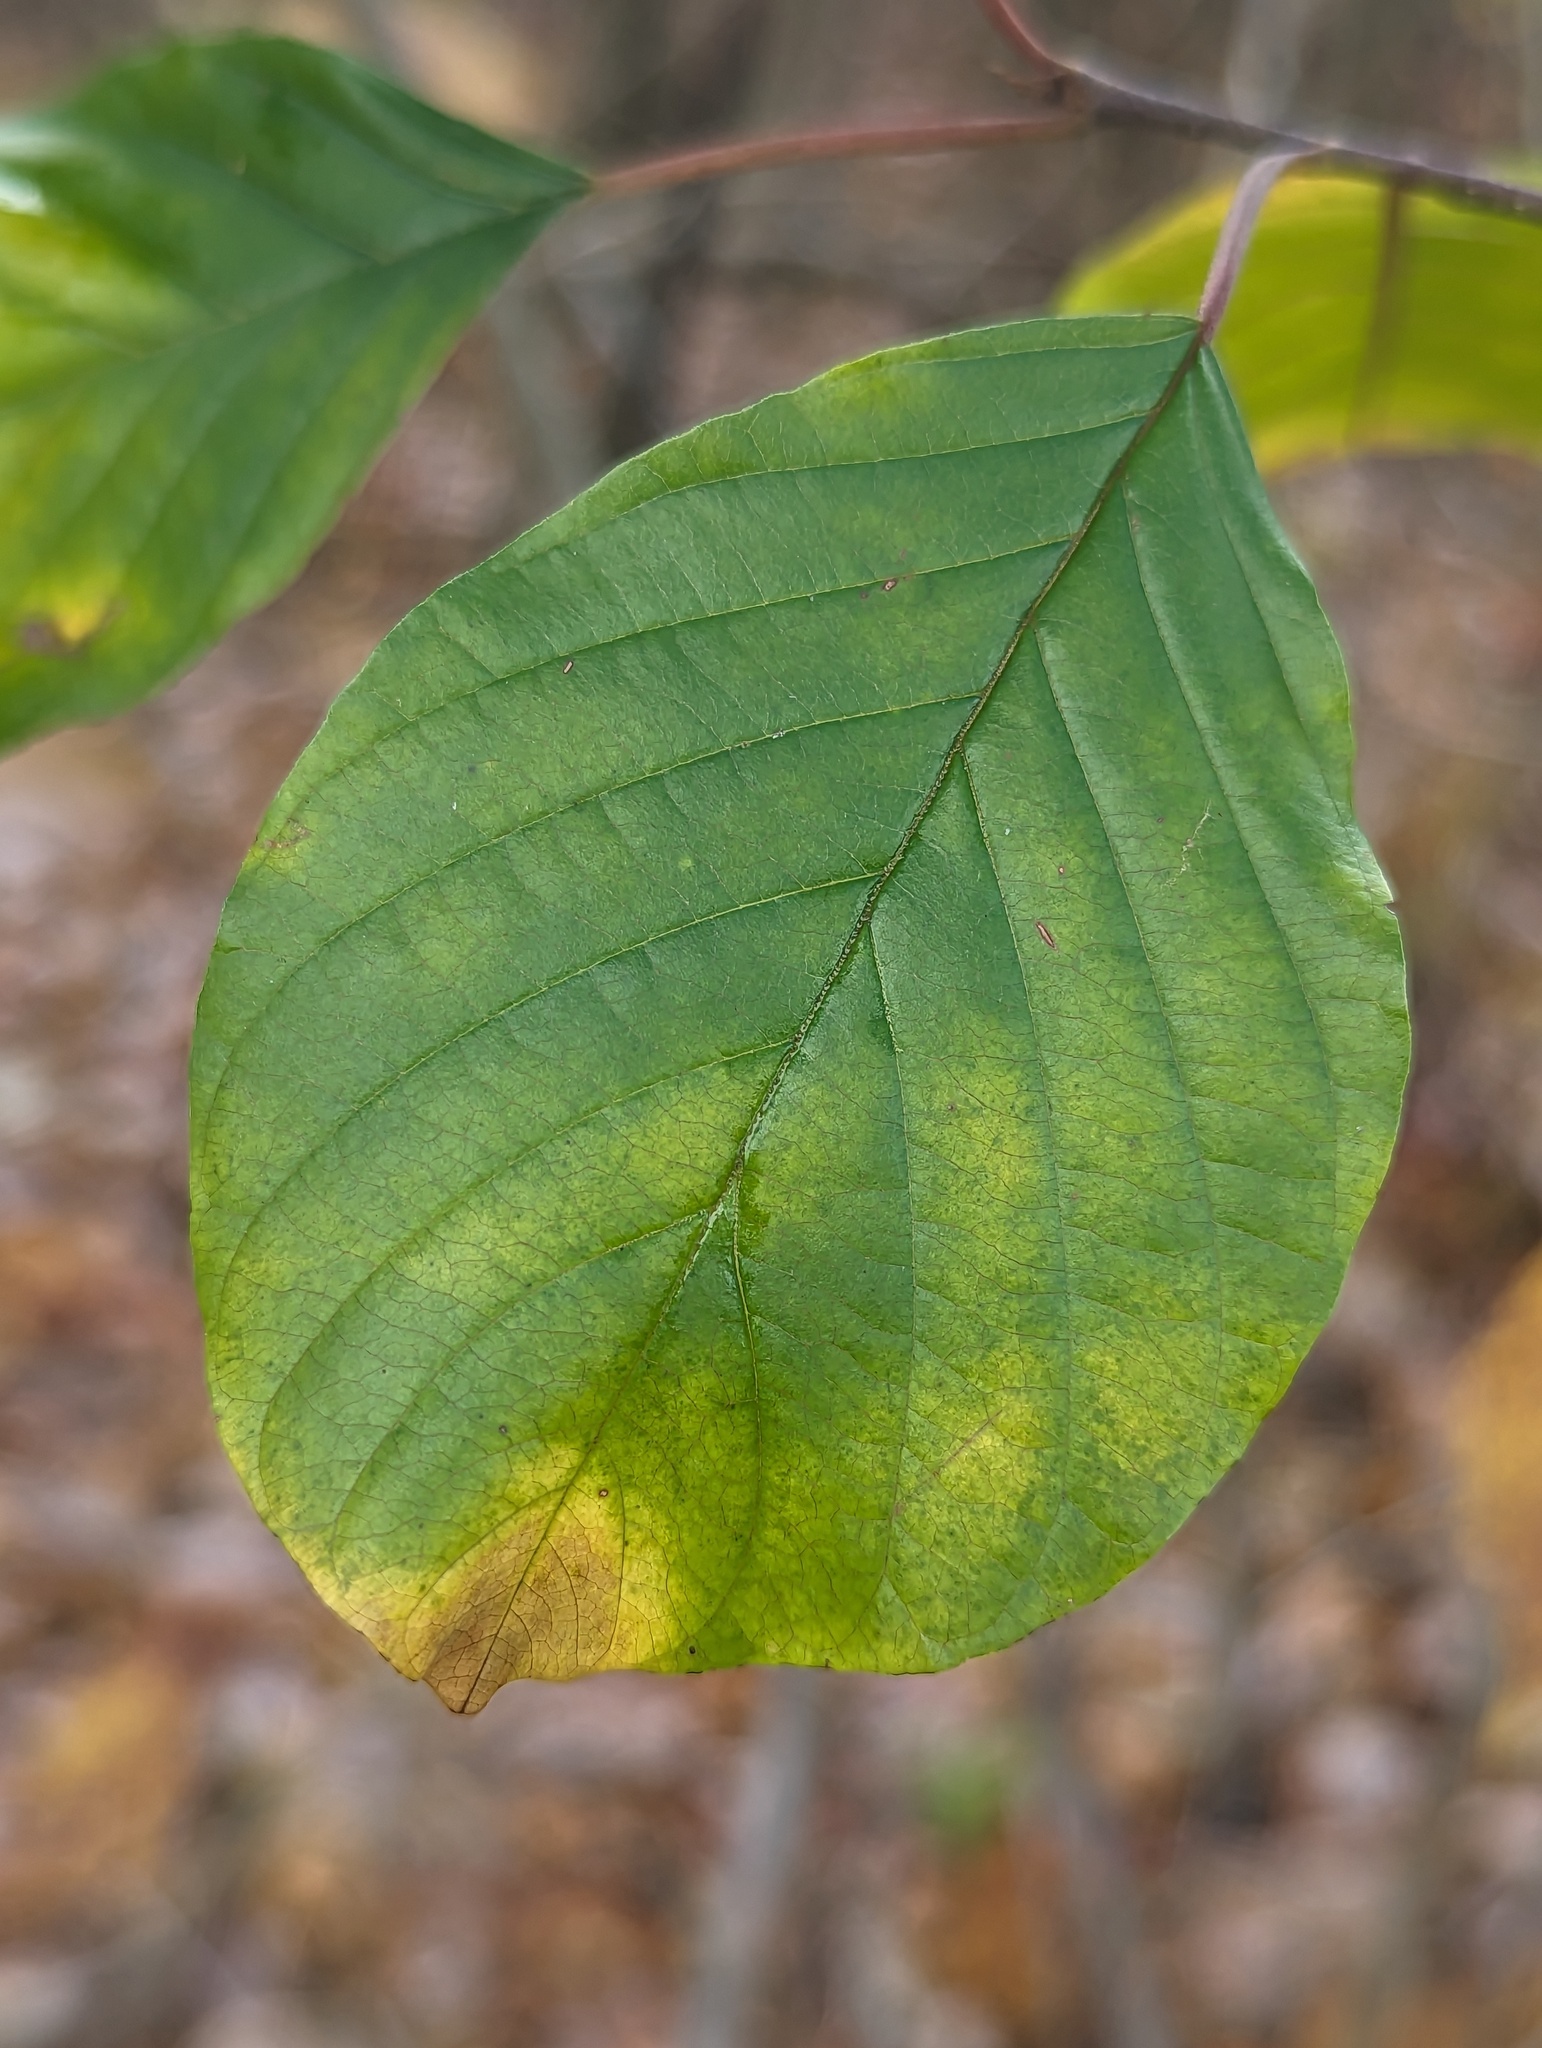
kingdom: Plantae
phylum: Tracheophyta
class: Magnoliopsida
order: Rosales
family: Rhamnaceae
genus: Frangula
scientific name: Frangula alnus
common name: Alder buckthorn
